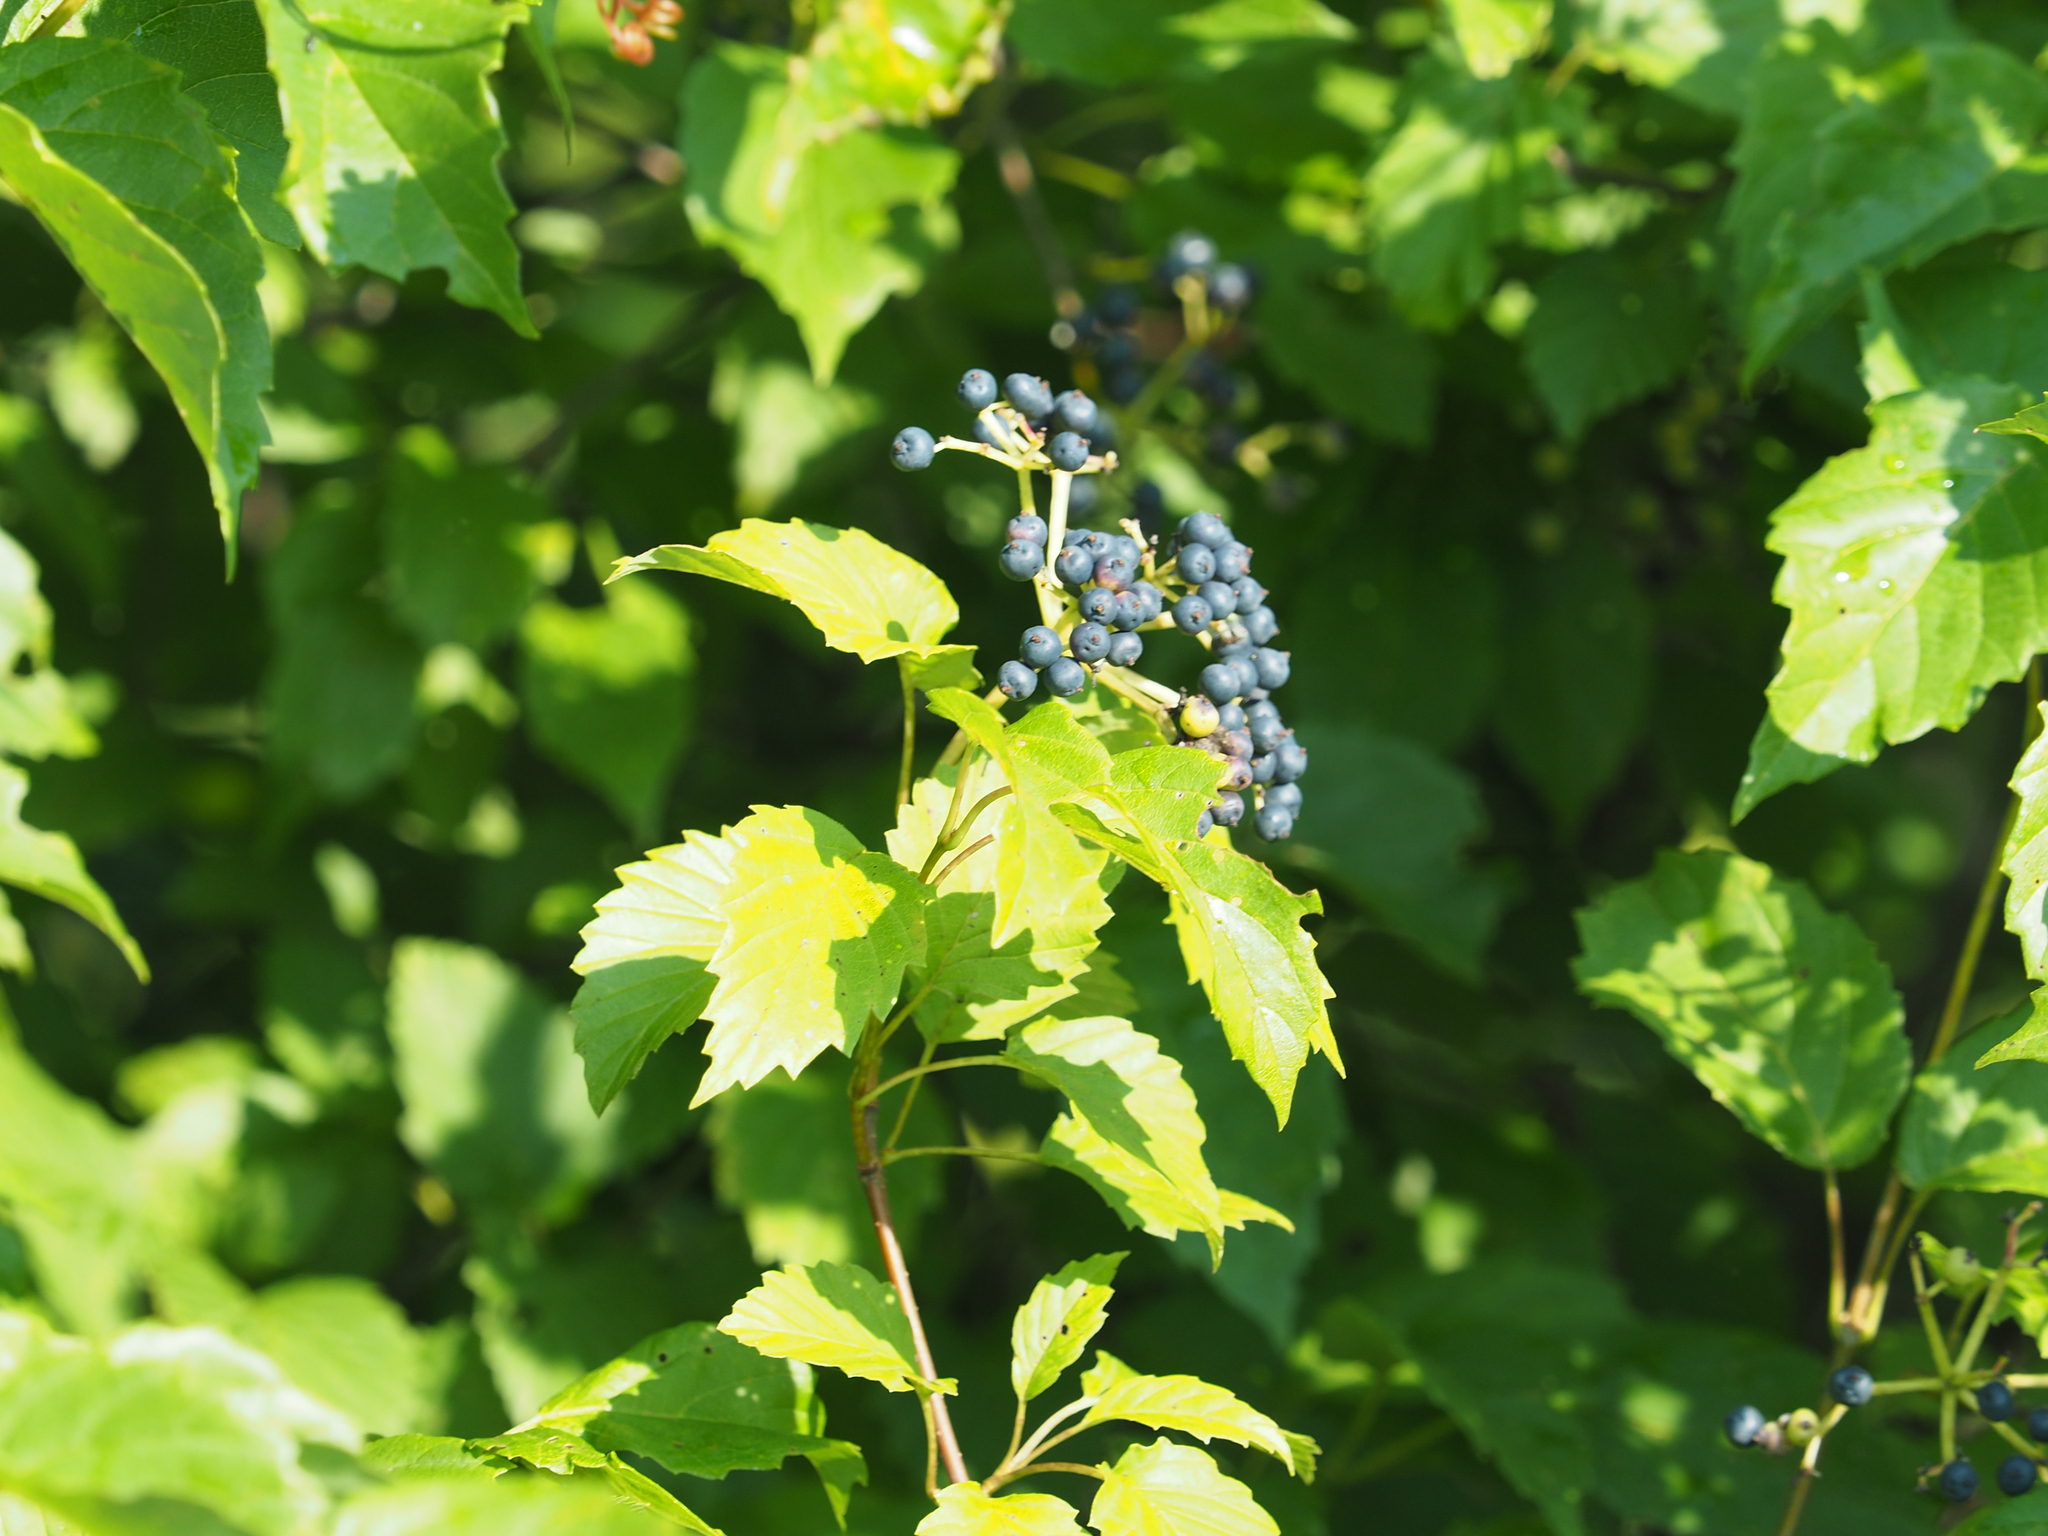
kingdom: Plantae
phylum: Tracheophyta
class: Magnoliopsida
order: Dipsacales
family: Viburnaceae
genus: Viburnum
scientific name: Viburnum recognitum
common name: Northern arrow-wood
